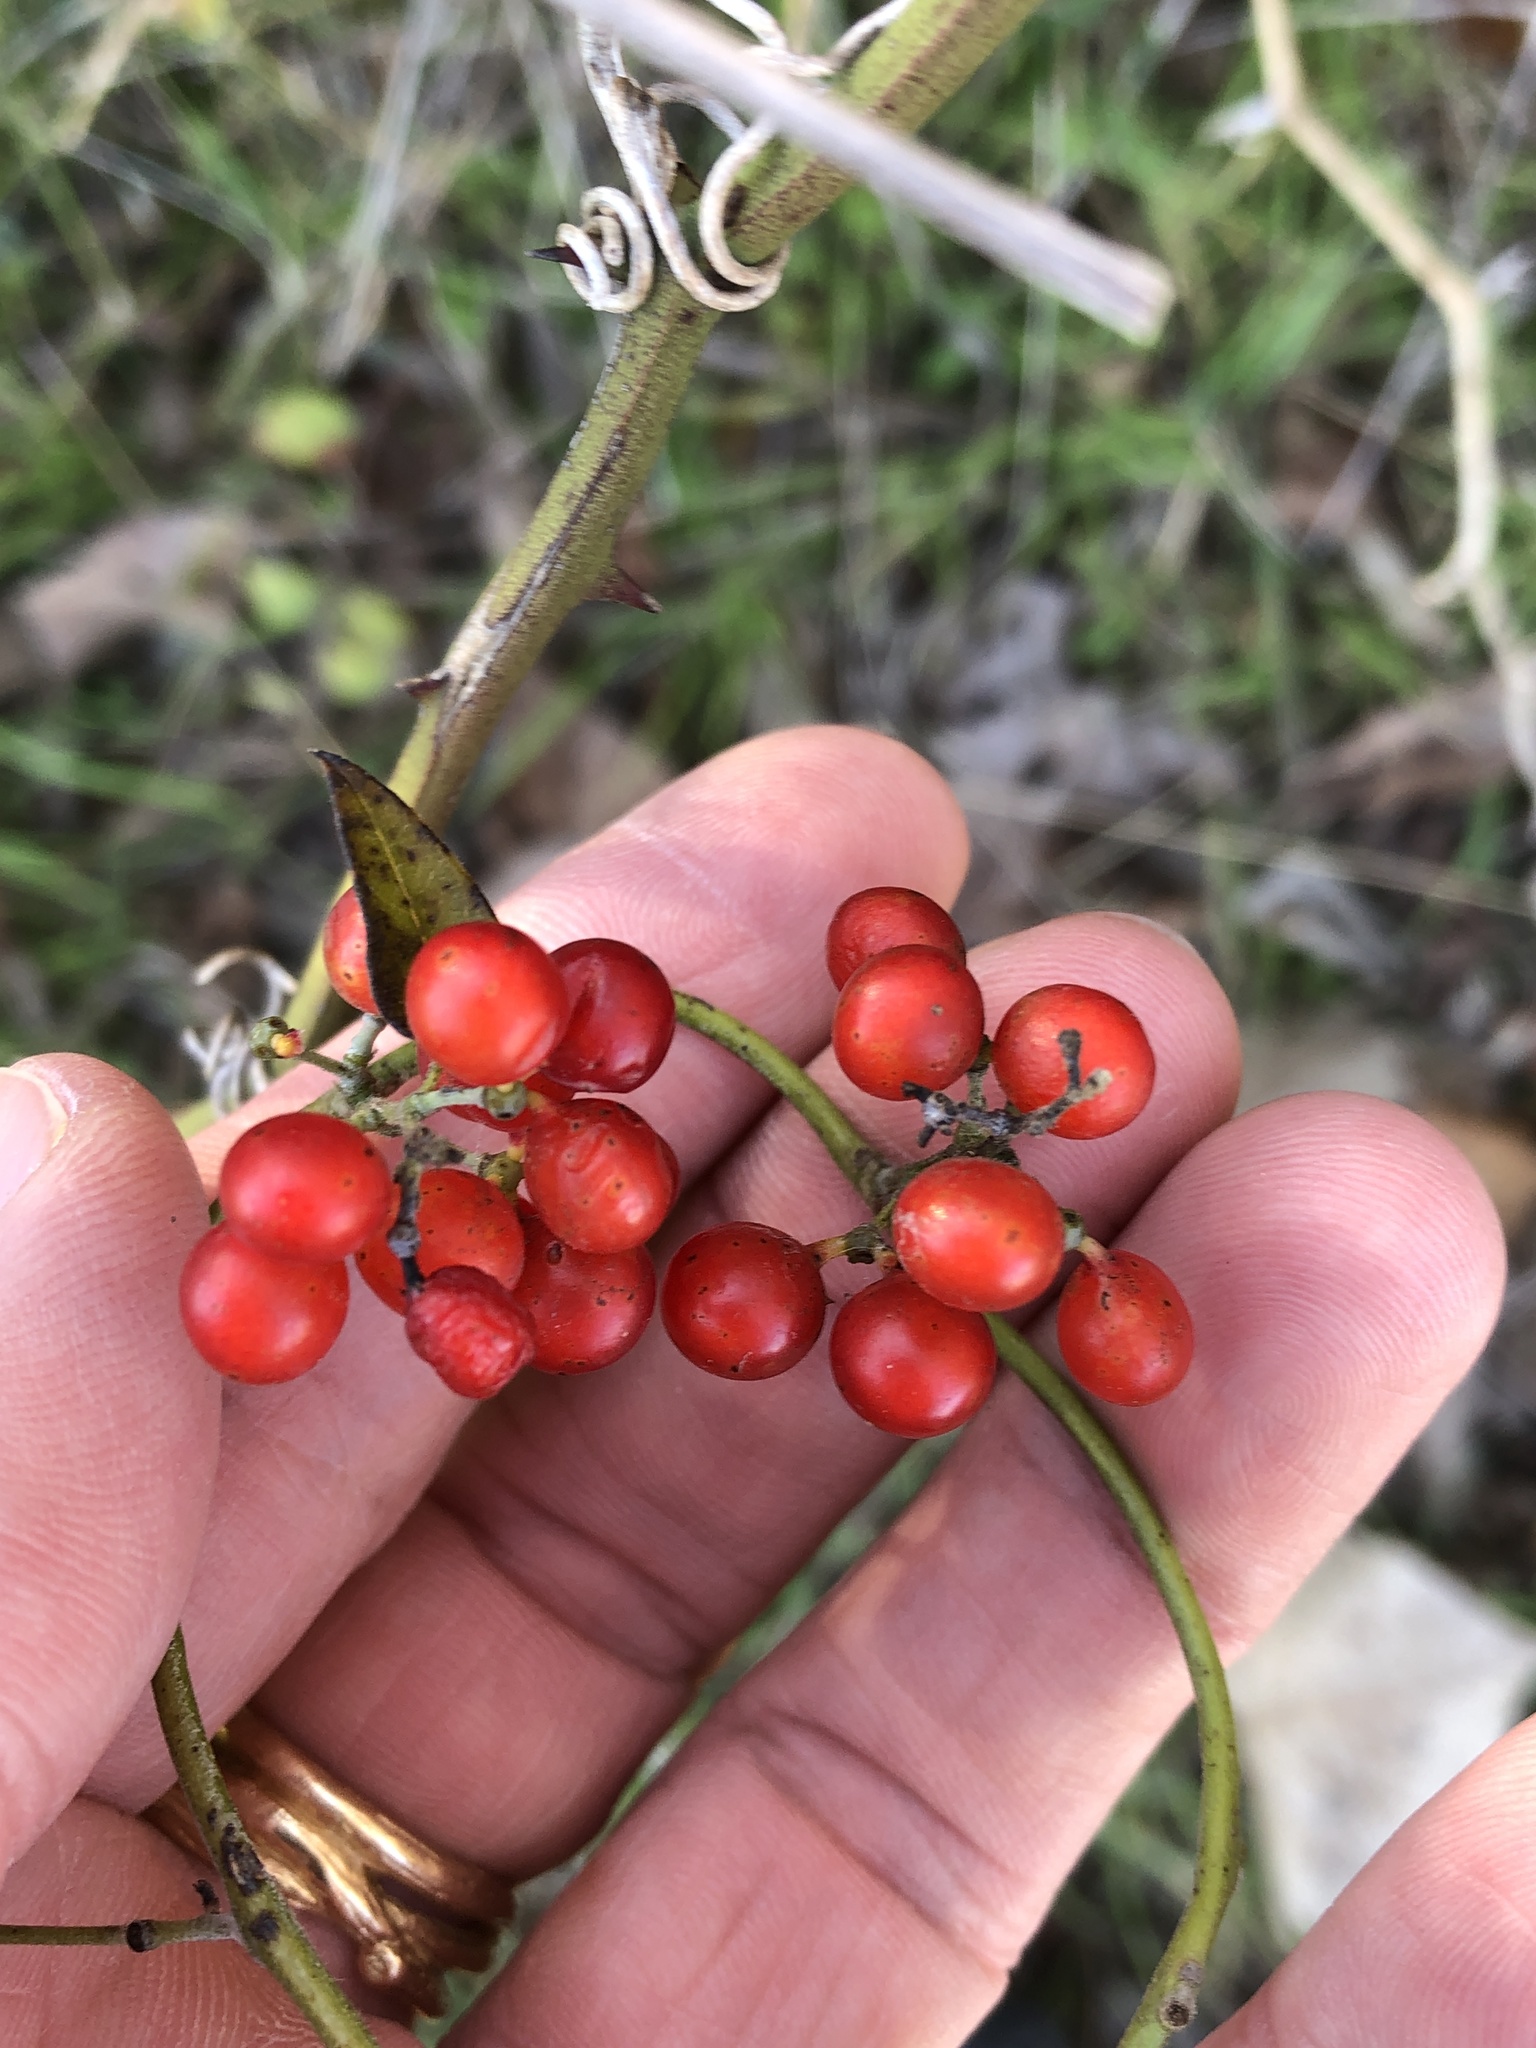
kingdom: Plantae
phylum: Tracheophyta
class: Magnoliopsida
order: Ranunculales
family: Menispermaceae
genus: Cocculus
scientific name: Cocculus carolinus
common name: Carolina moonseed
